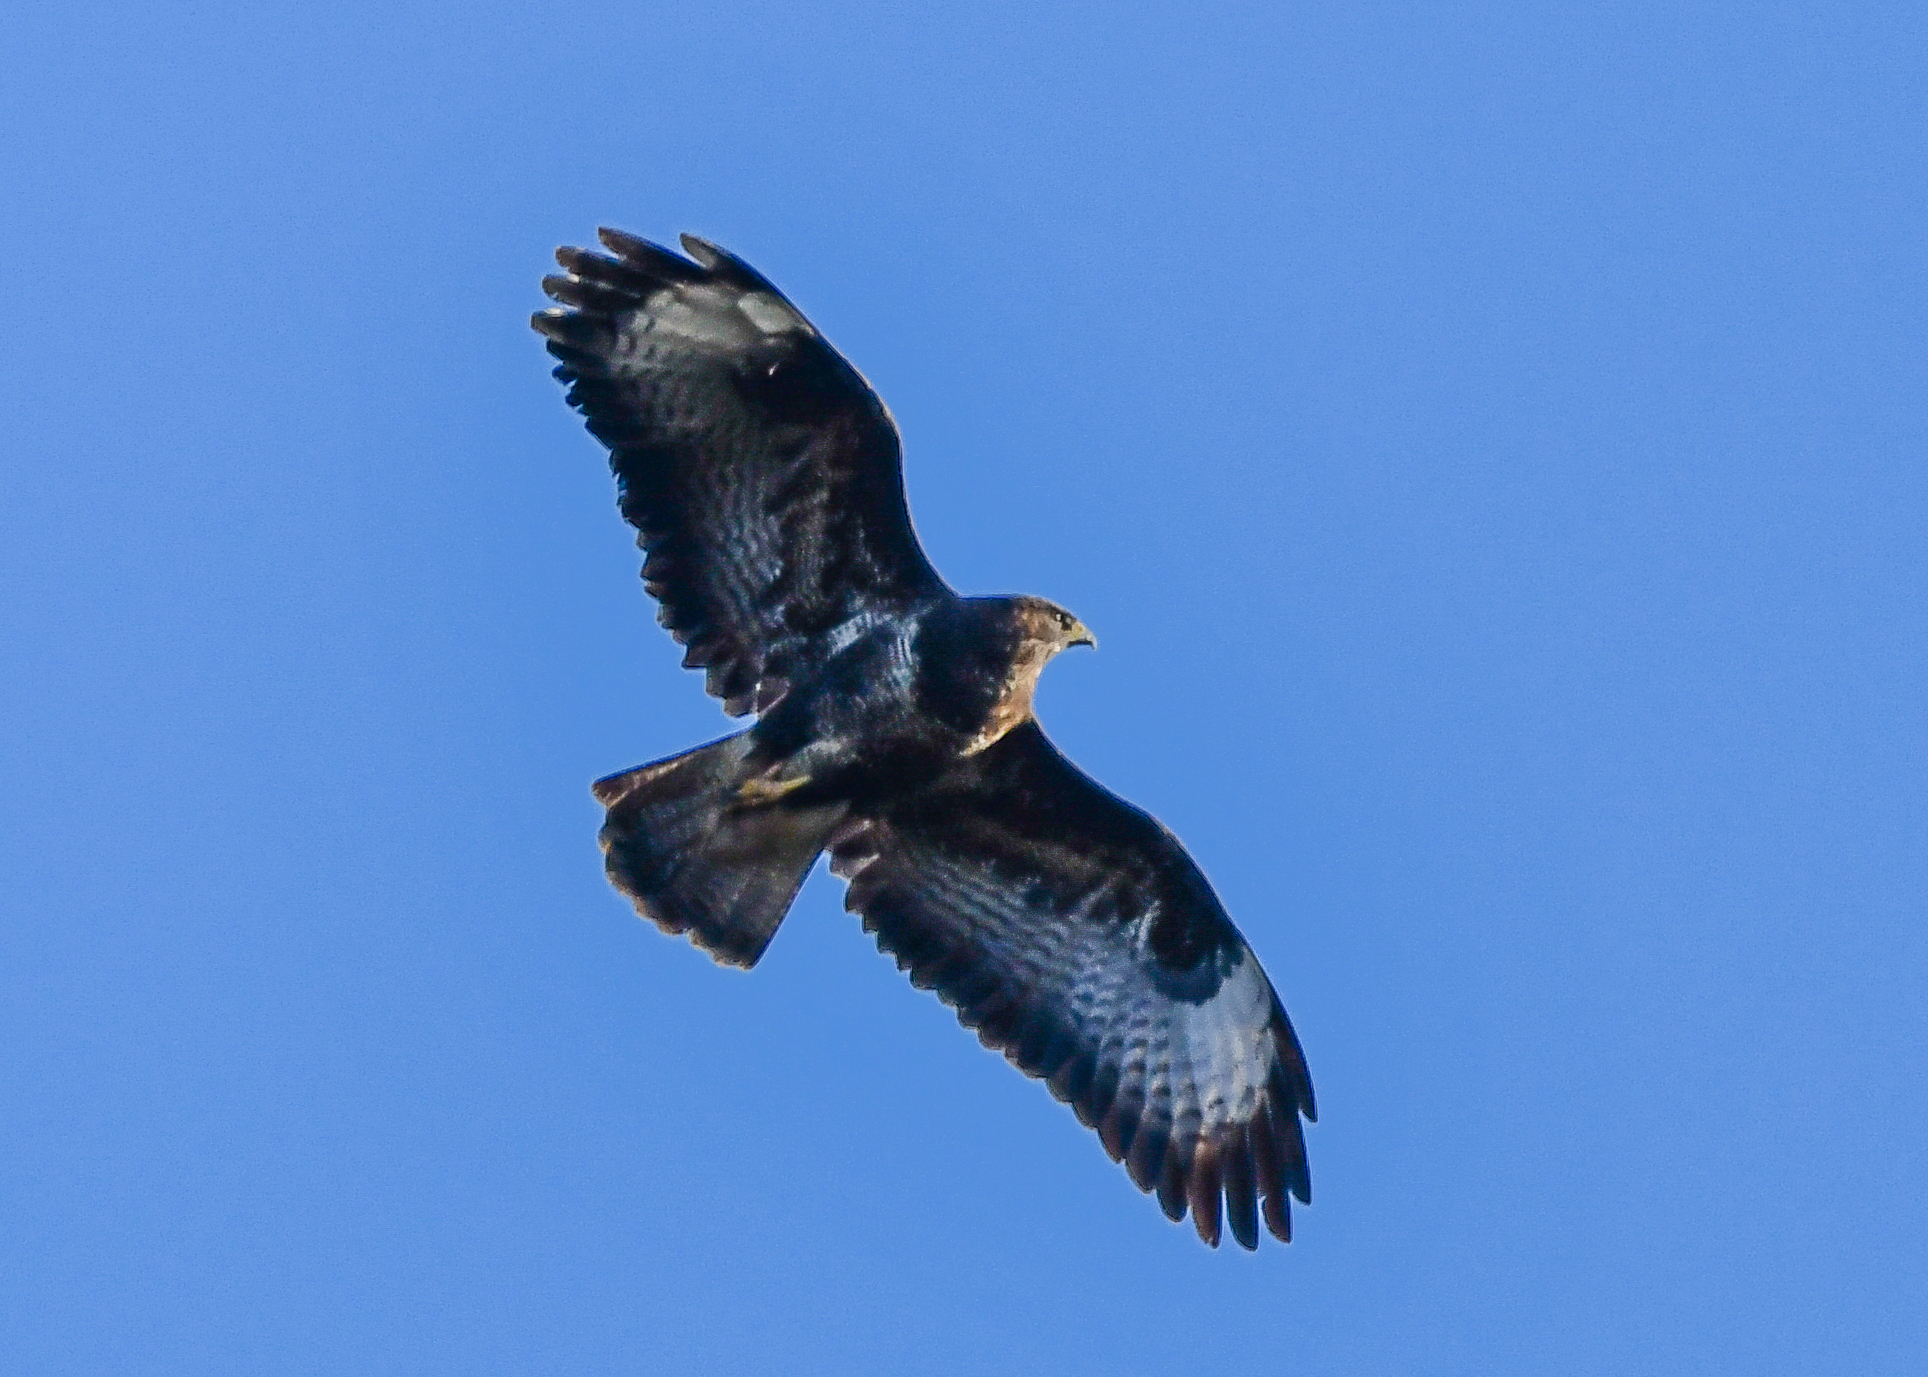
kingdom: Animalia
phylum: Chordata
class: Aves
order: Accipitriformes
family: Accipitridae
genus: Buteo
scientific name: Buteo buteo
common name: Common buzzard
